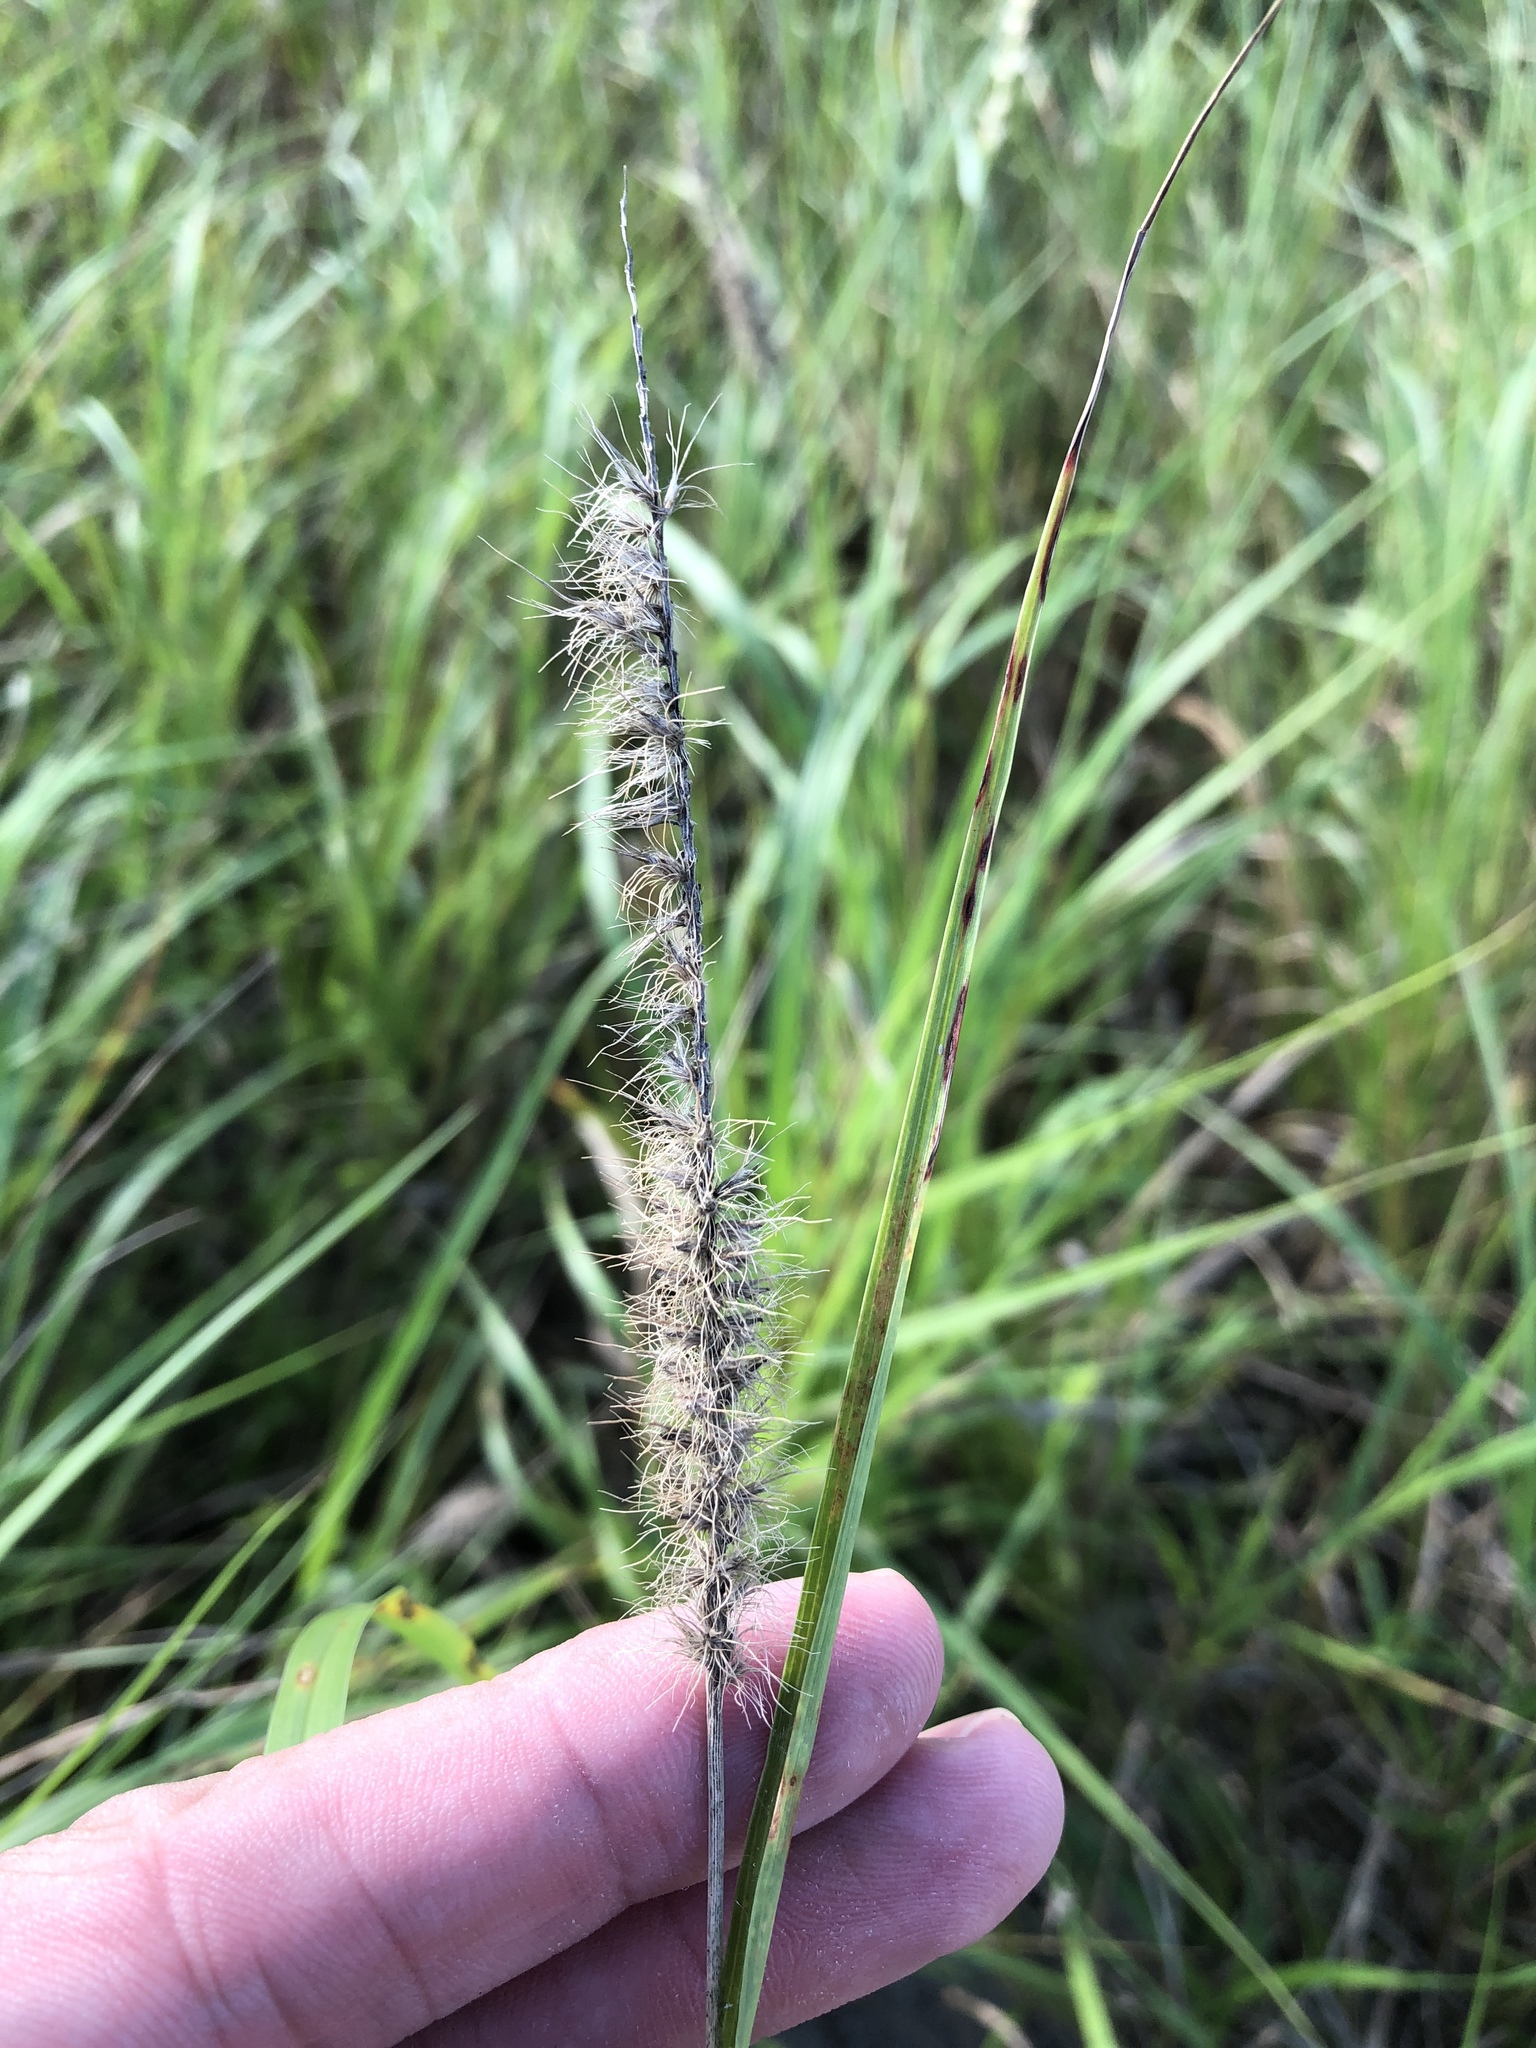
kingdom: Plantae
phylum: Tracheophyta
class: Liliopsida
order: Poales
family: Poaceae
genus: Cenchrus
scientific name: Cenchrus ciliaris
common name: Buffelgrass
